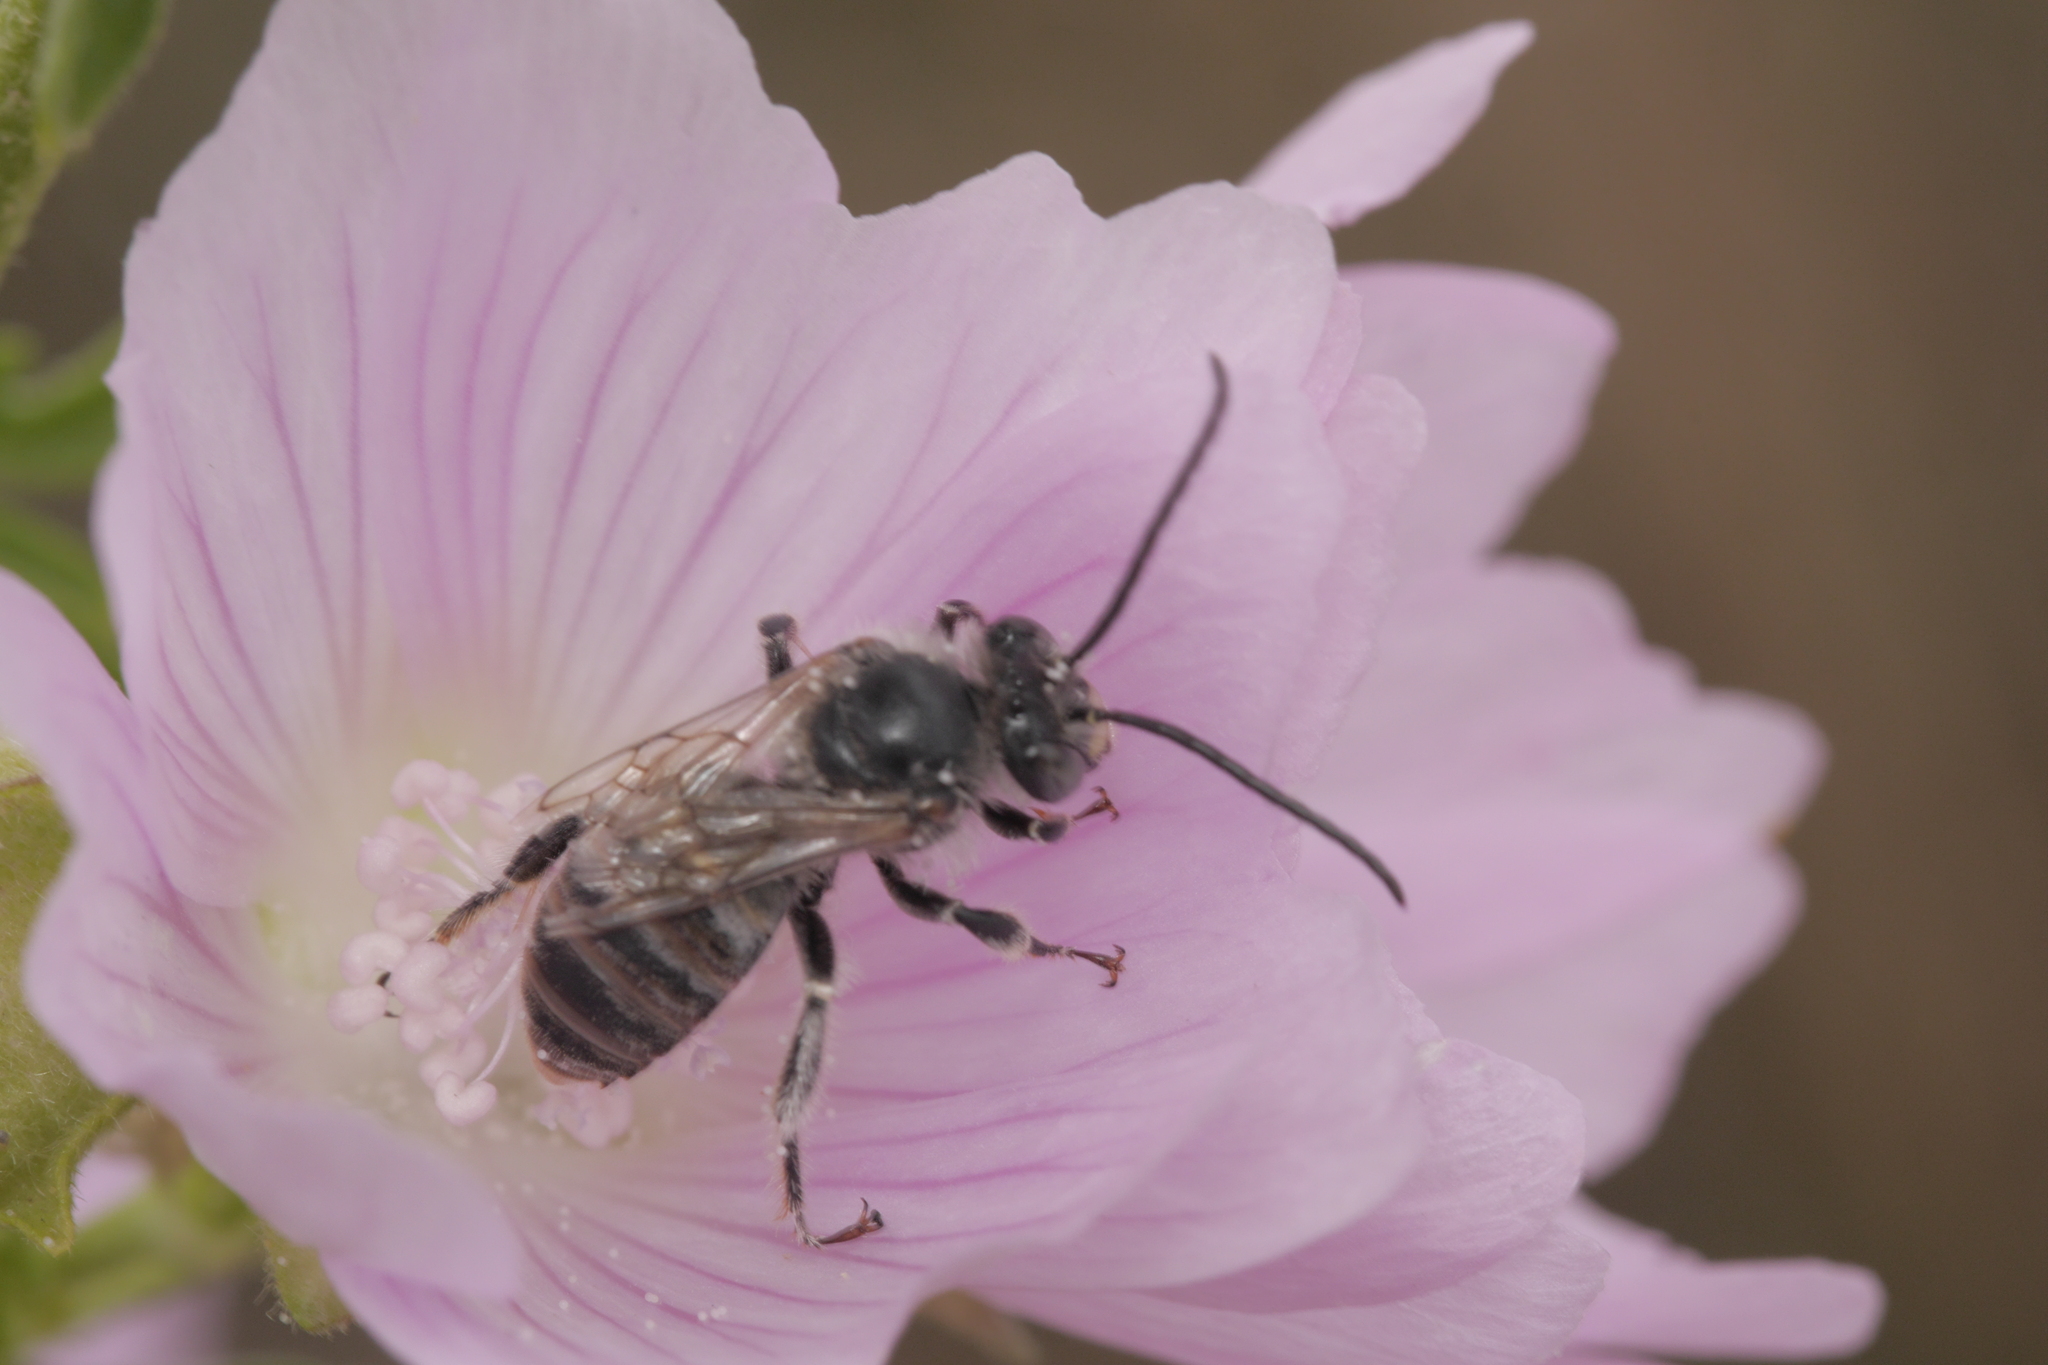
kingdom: Animalia
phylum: Arthropoda
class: Insecta
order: Hymenoptera
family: Apidae
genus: Tetralonia
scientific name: Tetralonia malvae
